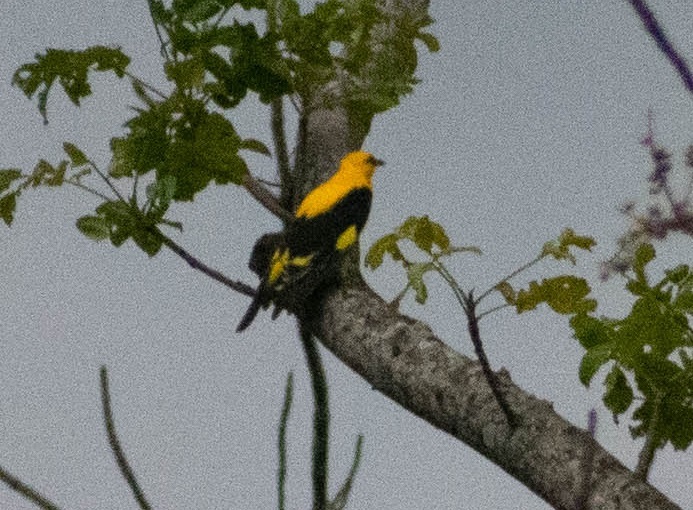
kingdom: Animalia
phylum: Chordata
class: Aves
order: Passeriformes
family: Oriolidae
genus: Oriolus
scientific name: Oriolus kundoo
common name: Indian golden oriole
